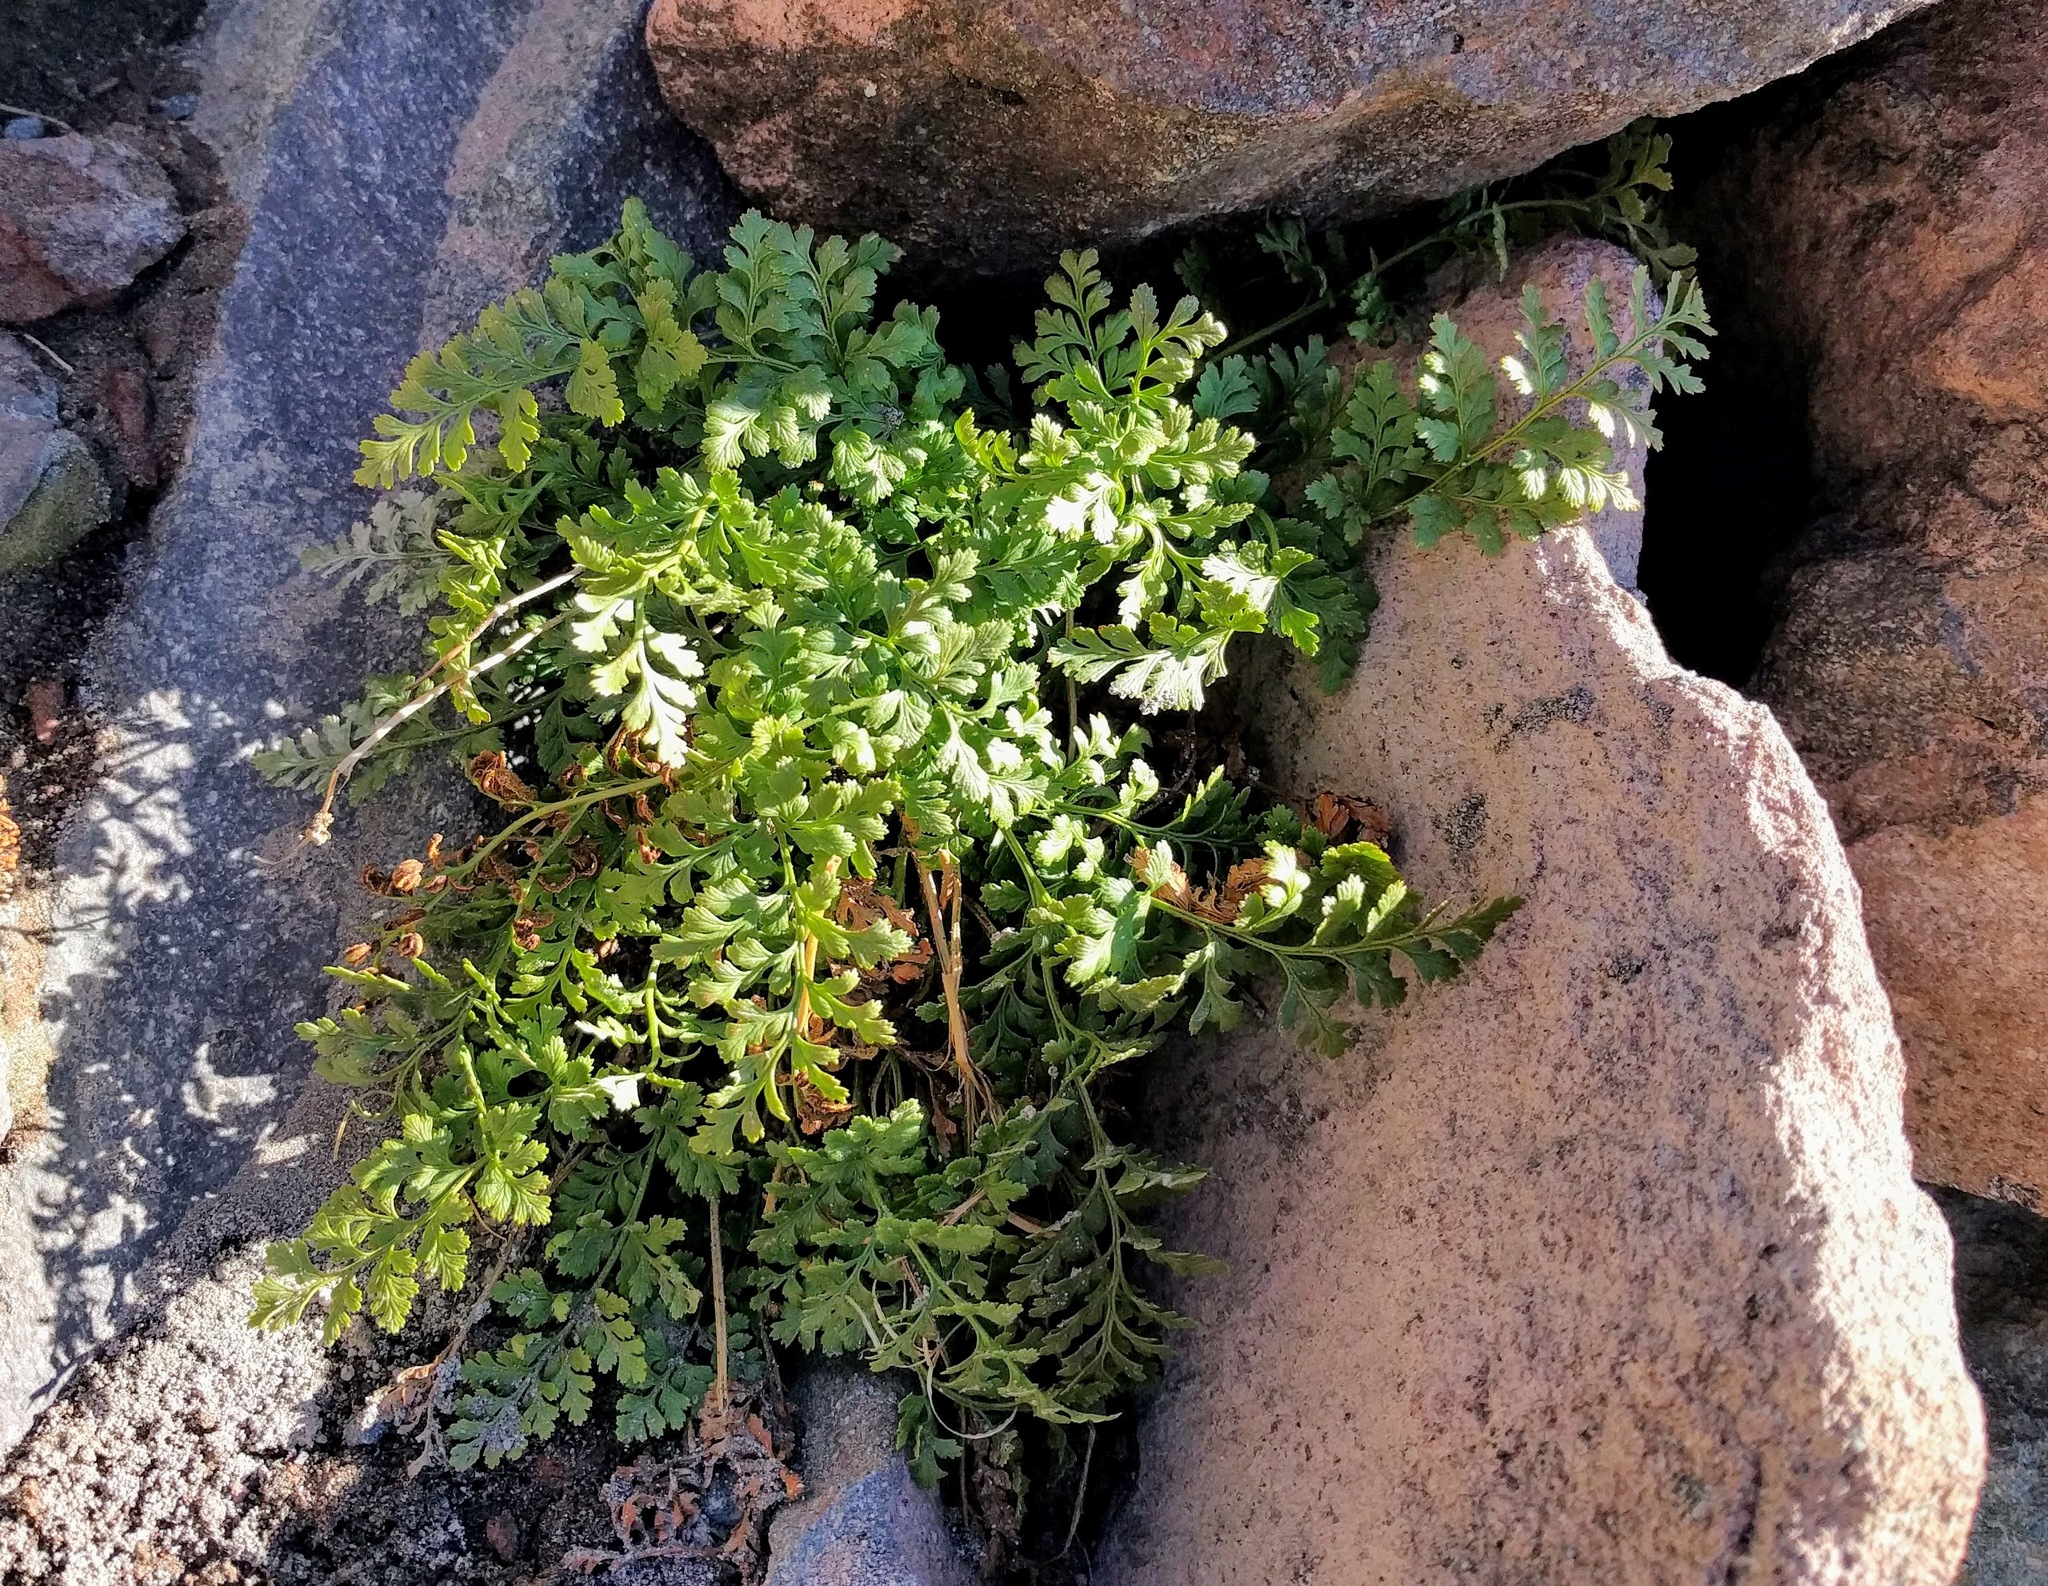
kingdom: Plantae
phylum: Tracheophyta
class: Polypodiopsida
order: Polypodiales
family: Pteridaceae
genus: Cryptogramma
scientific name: Cryptogramma acrostichoides
